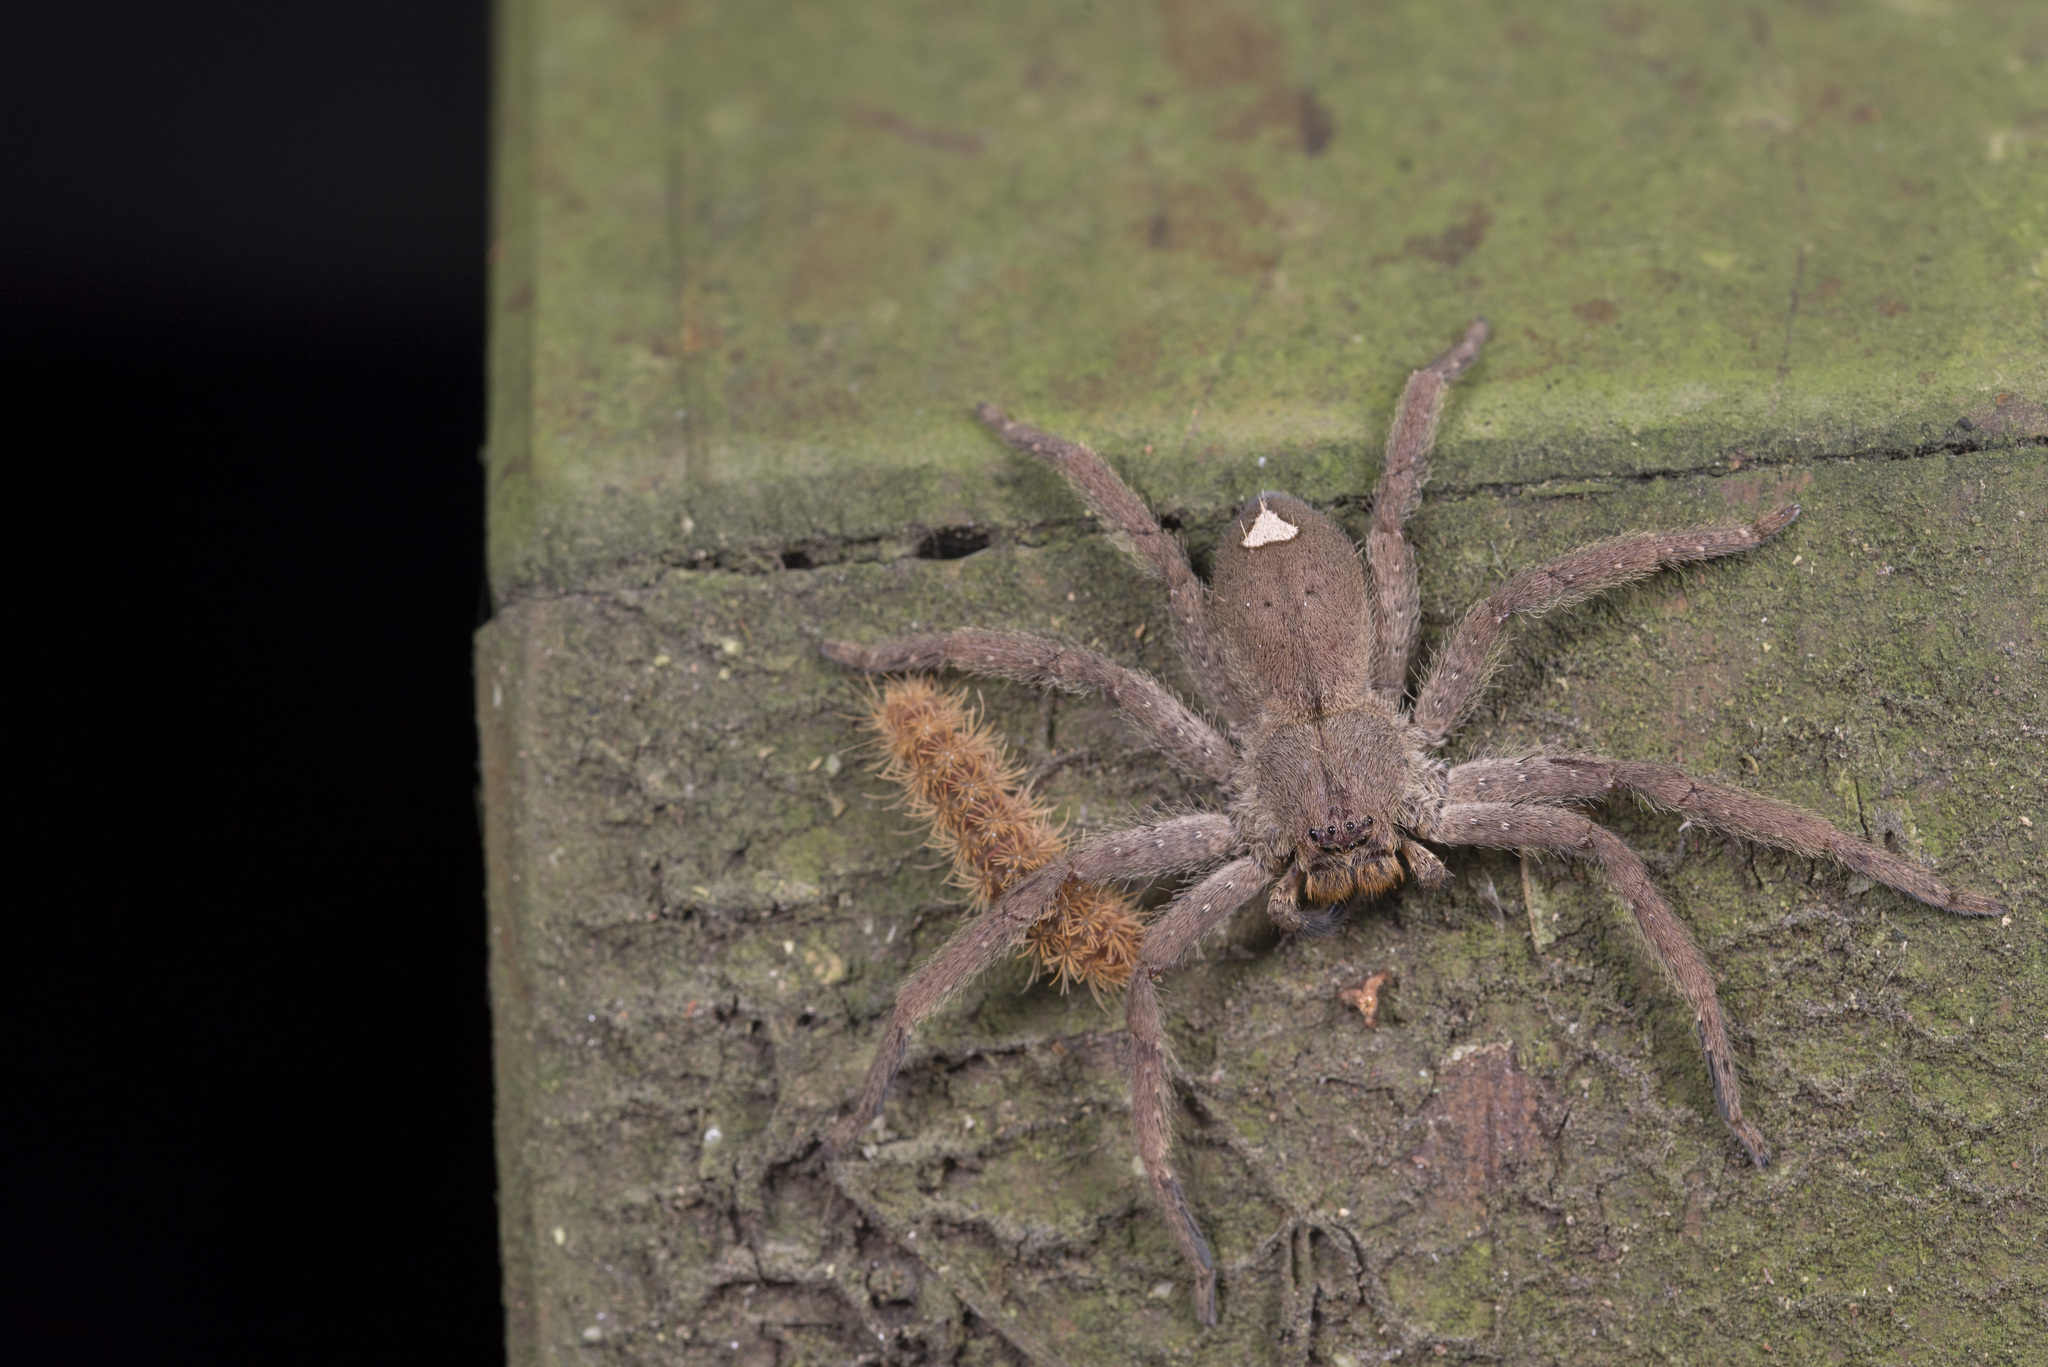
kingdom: Animalia
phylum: Arthropoda
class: Arachnida
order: Araneae
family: Sparassidae
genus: Heteropoda
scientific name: Heteropoda pingtungensis
